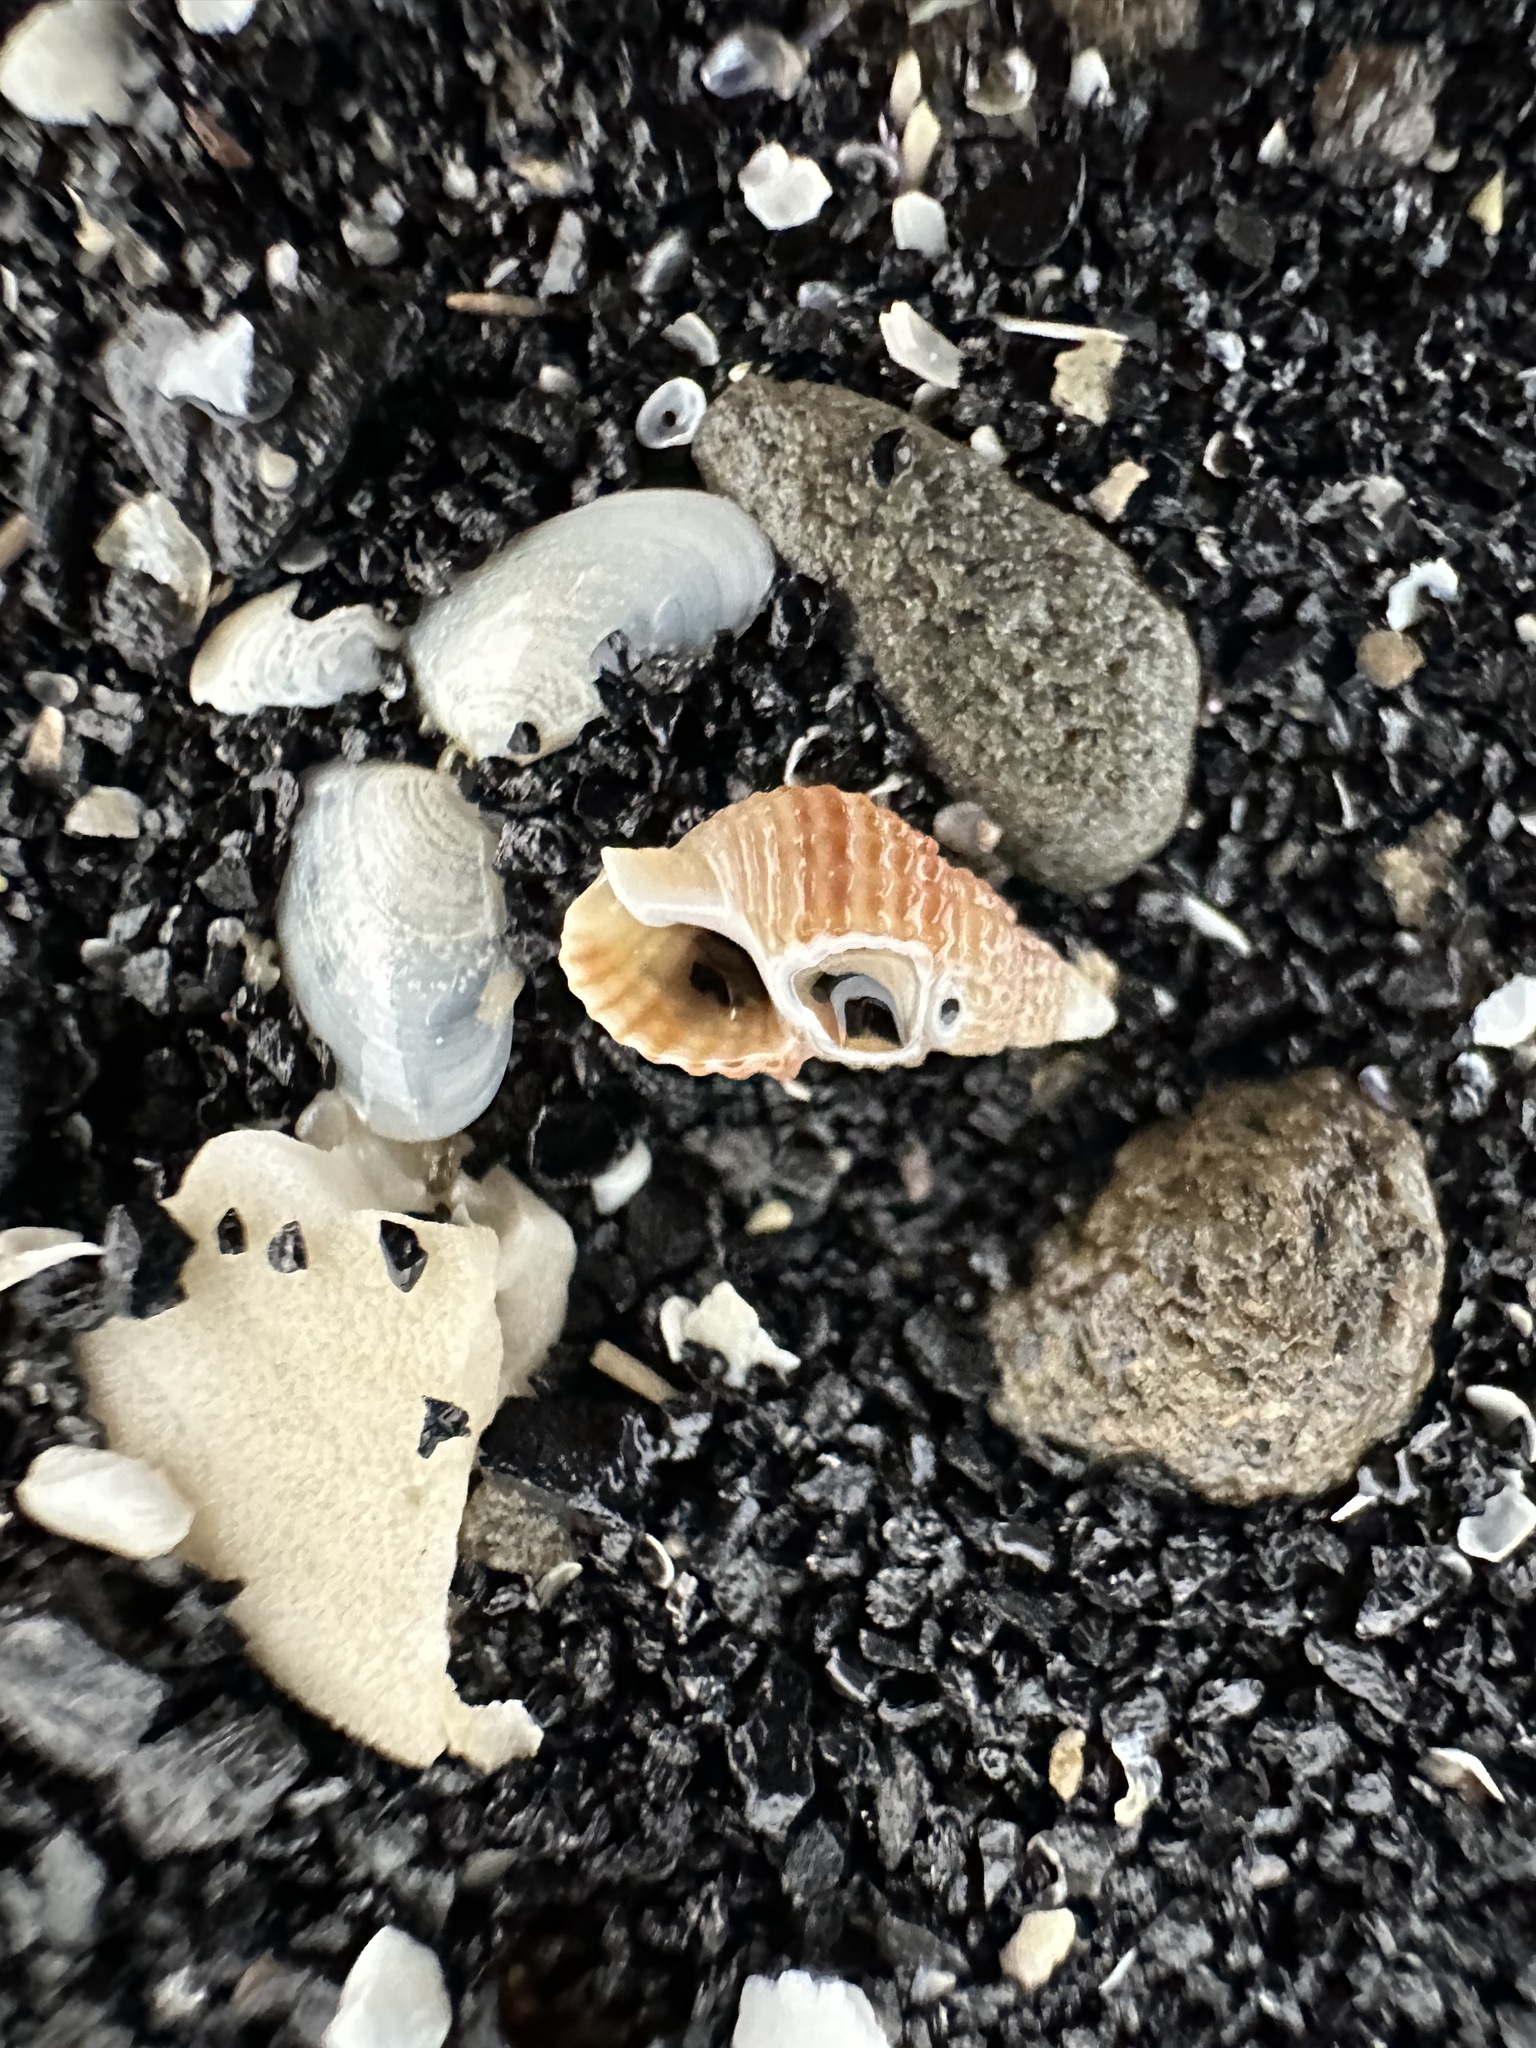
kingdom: Animalia
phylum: Mollusca
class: Gastropoda
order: Neogastropoda
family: Nassariidae
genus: Ilyanassa
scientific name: Ilyanassa trivittata
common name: Three-line mudsnail
